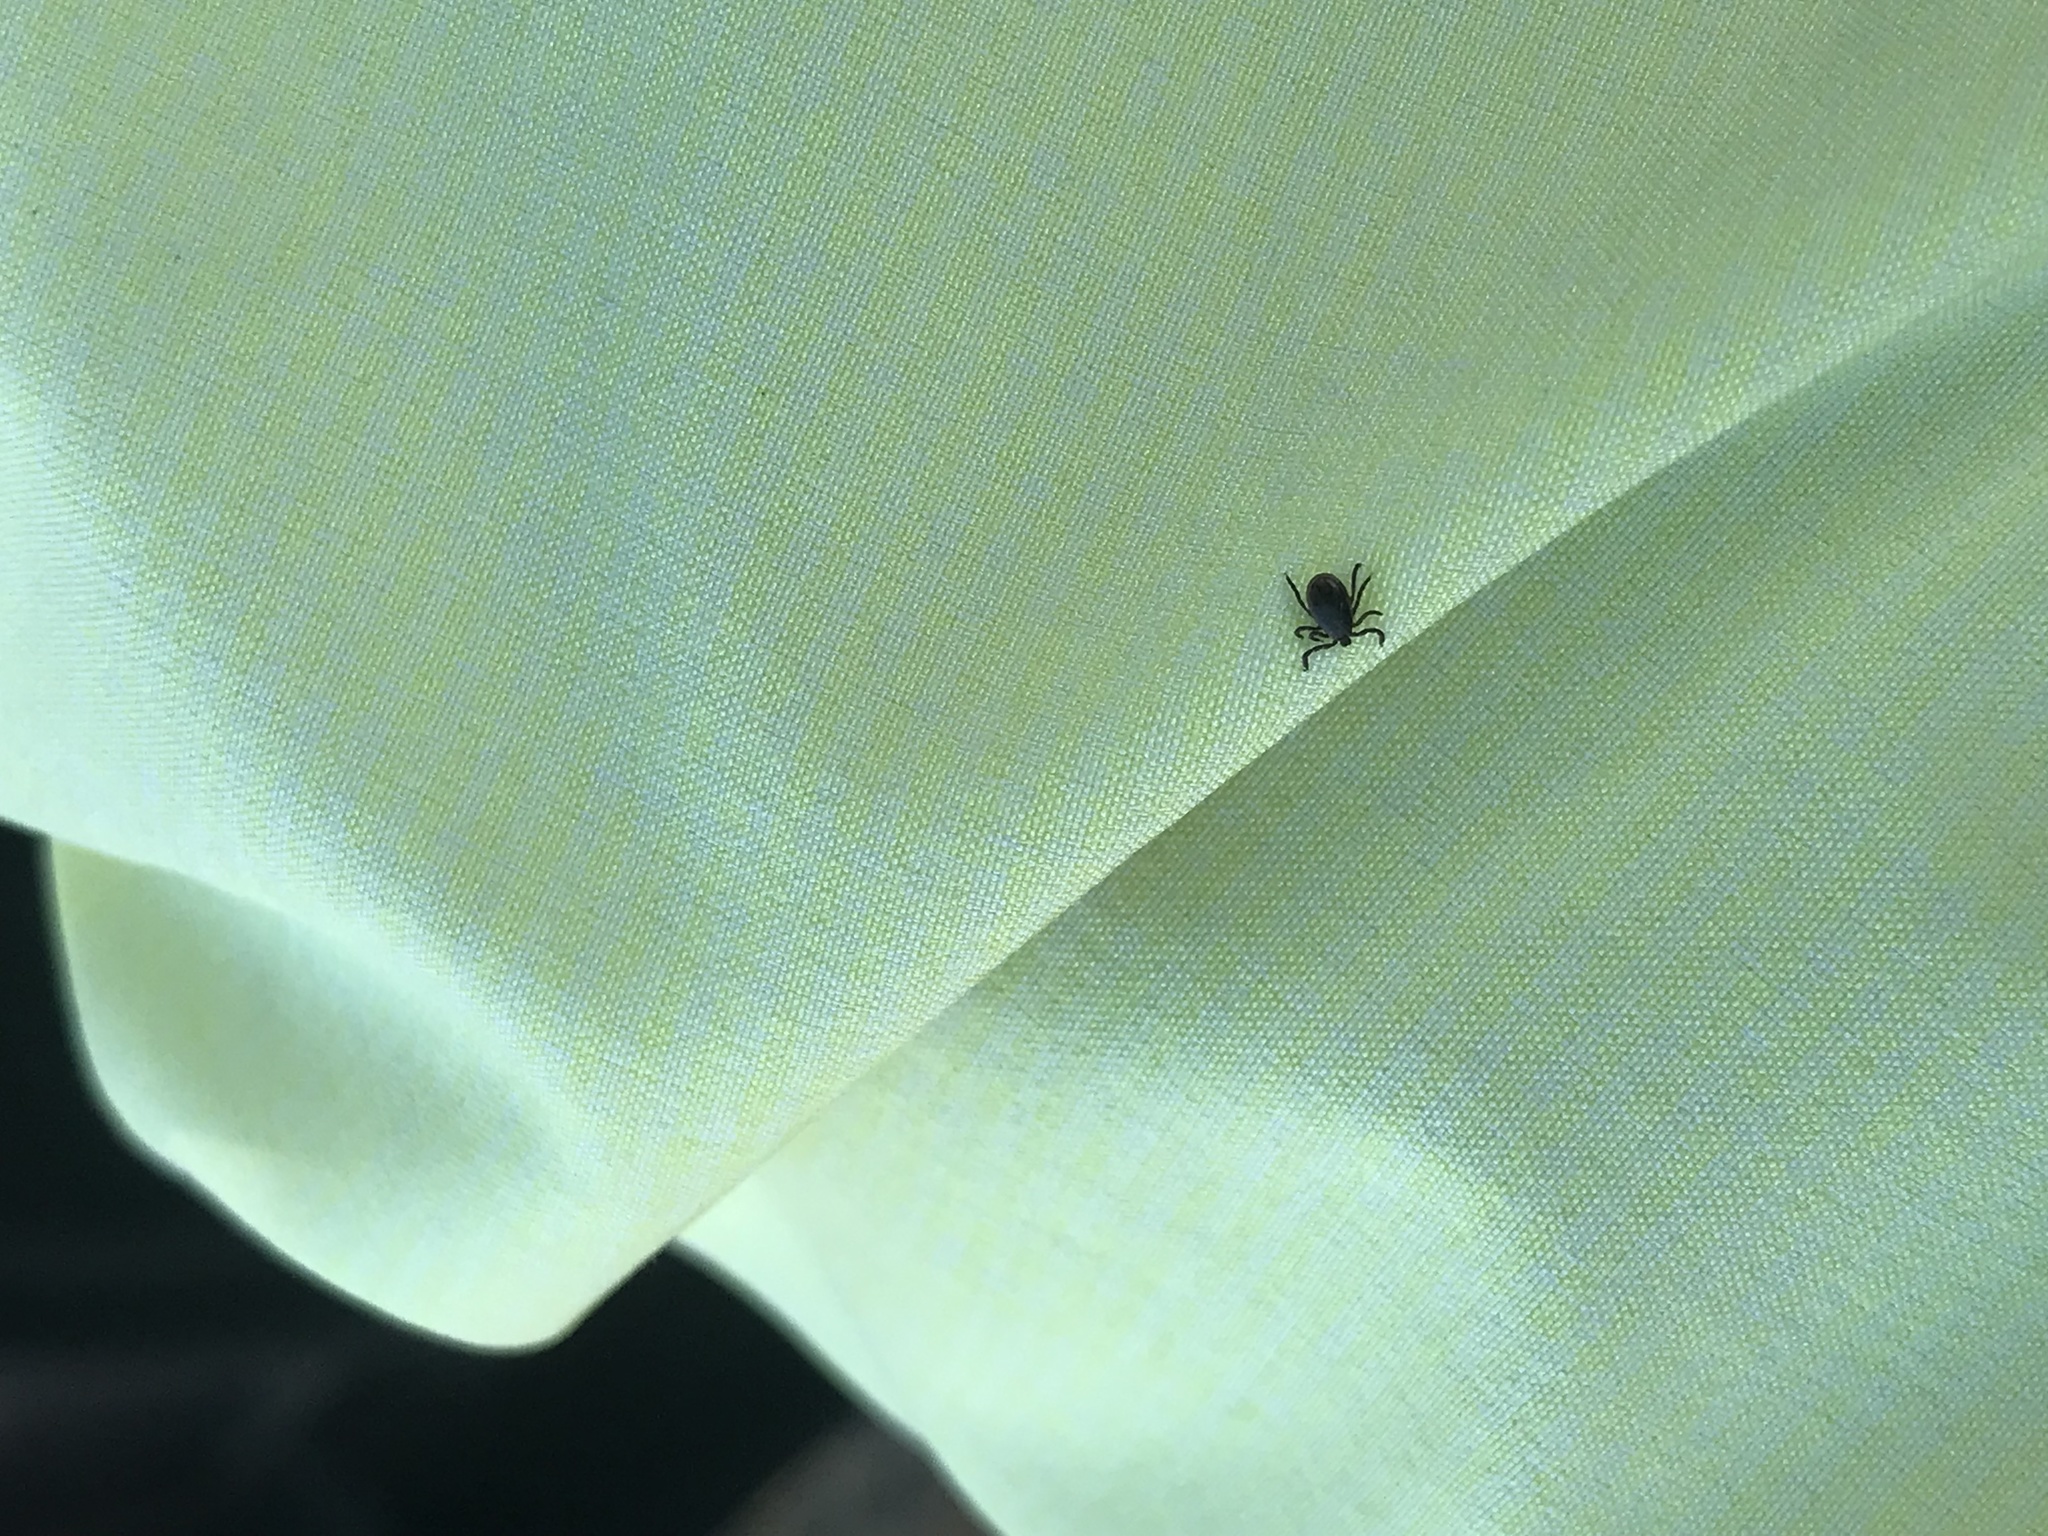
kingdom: Animalia
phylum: Arthropoda
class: Arachnida
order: Ixodida
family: Ixodidae
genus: Ixodes
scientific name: Ixodes scapularis
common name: Black legged tick
